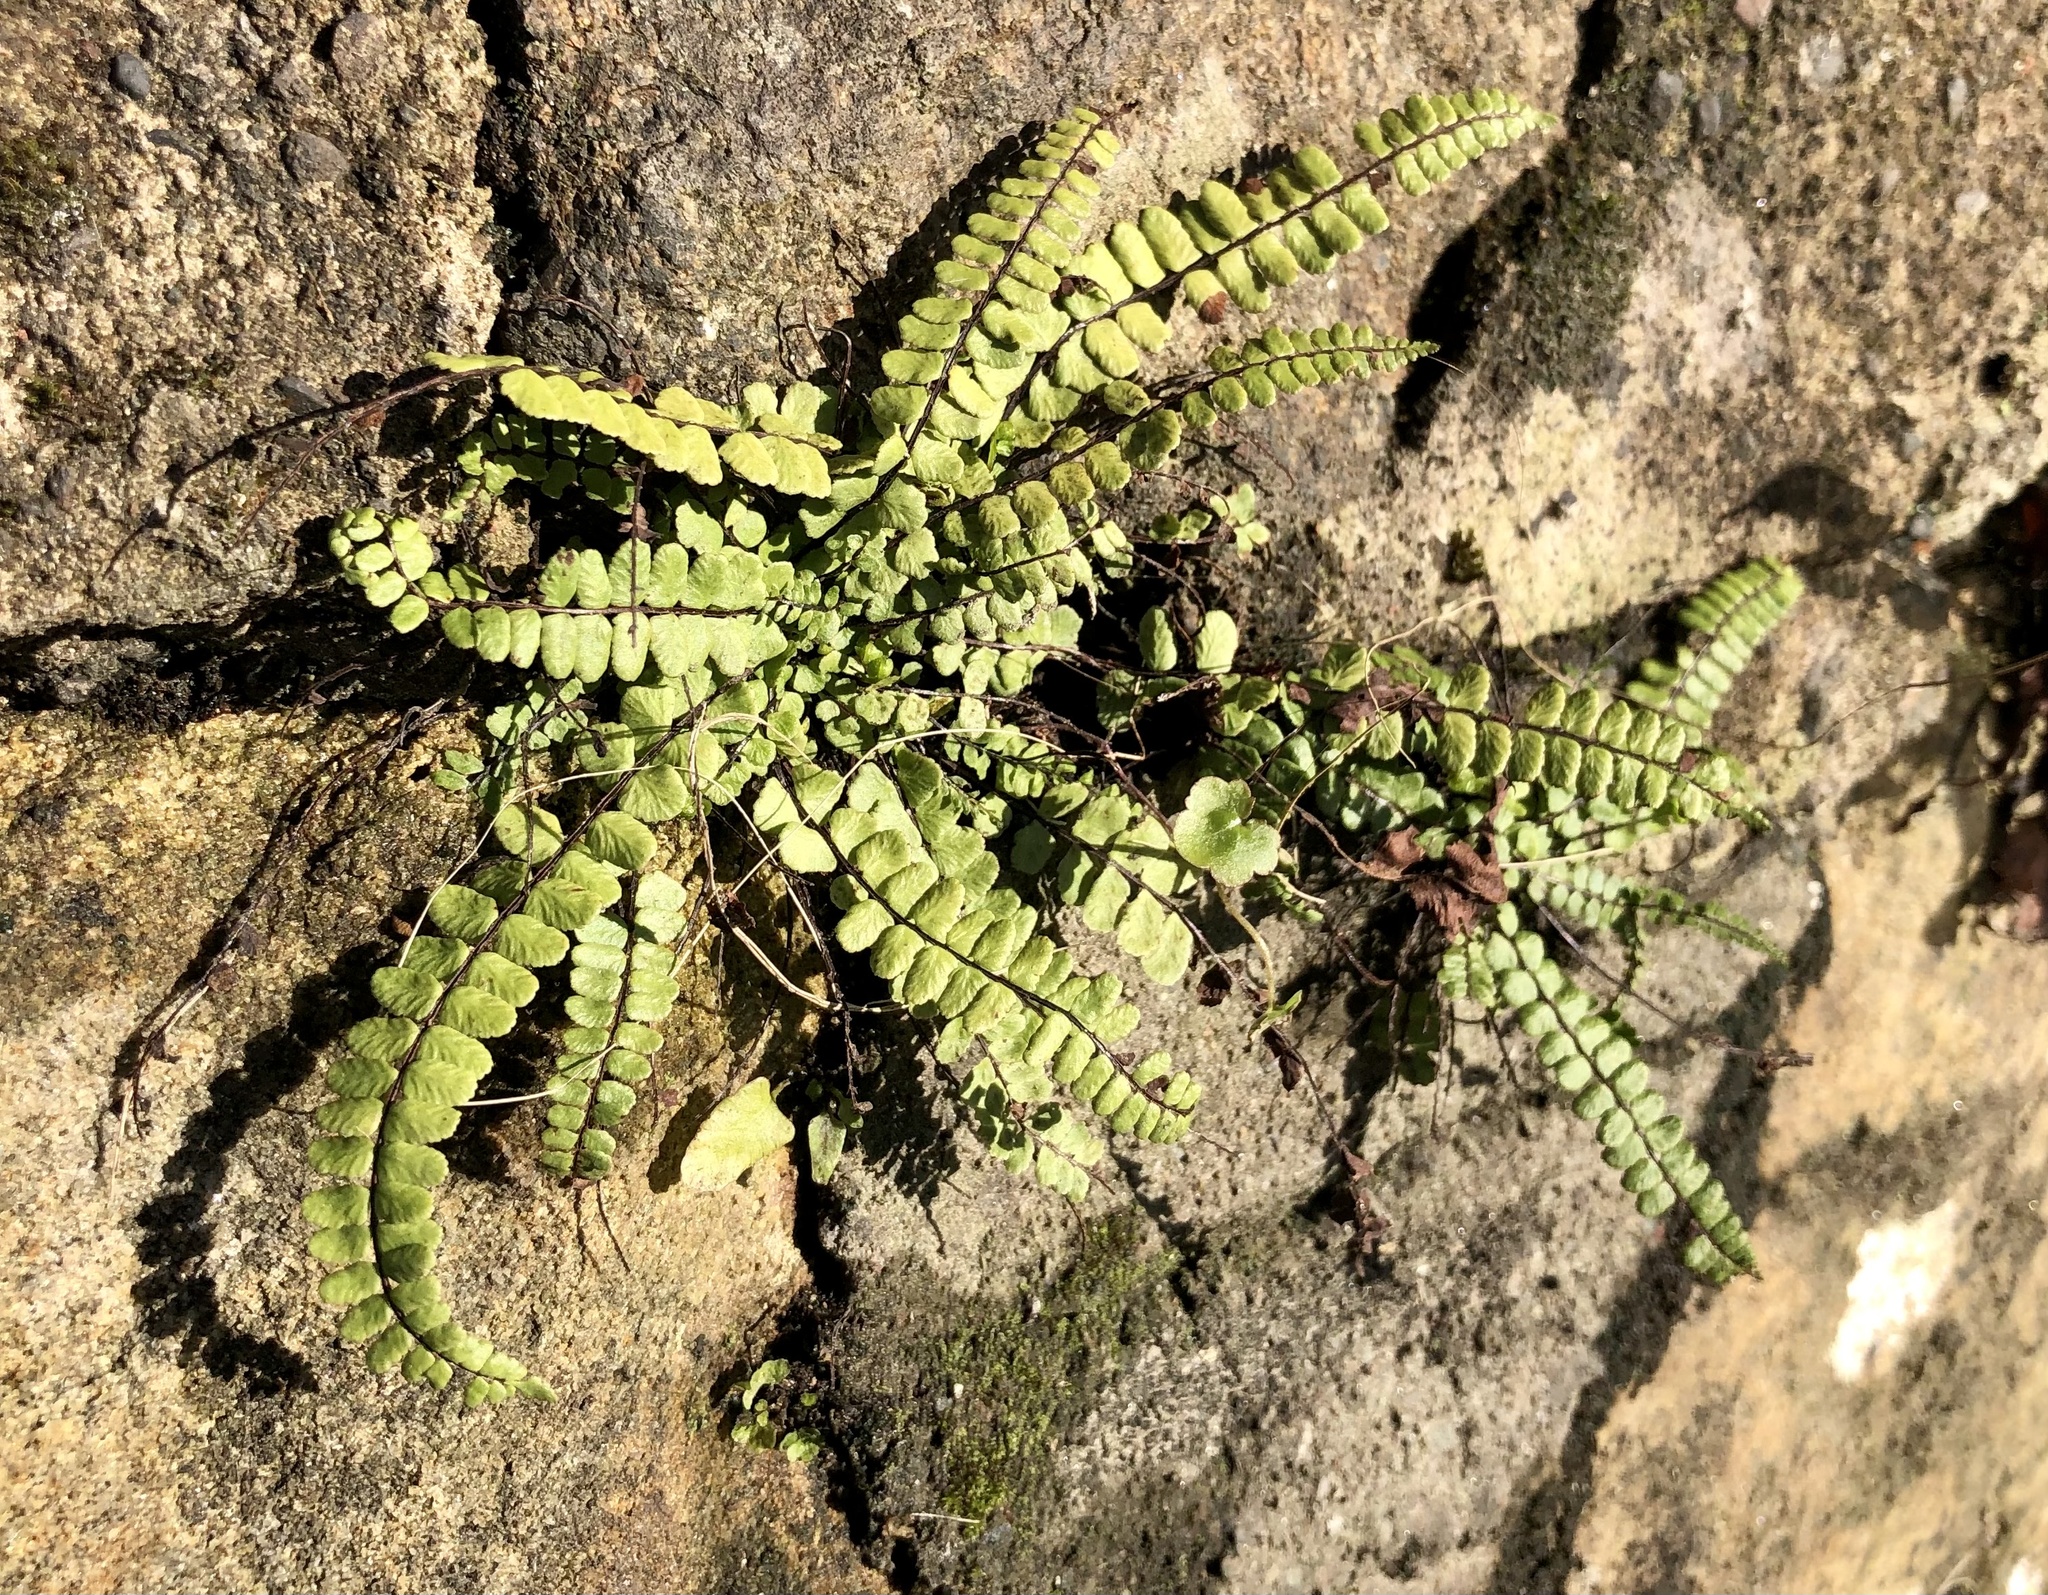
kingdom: Plantae
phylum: Tracheophyta
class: Polypodiopsida
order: Polypodiales
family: Aspleniaceae
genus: Asplenium
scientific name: Asplenium trichomanes
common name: Maidenhair spleenwort
